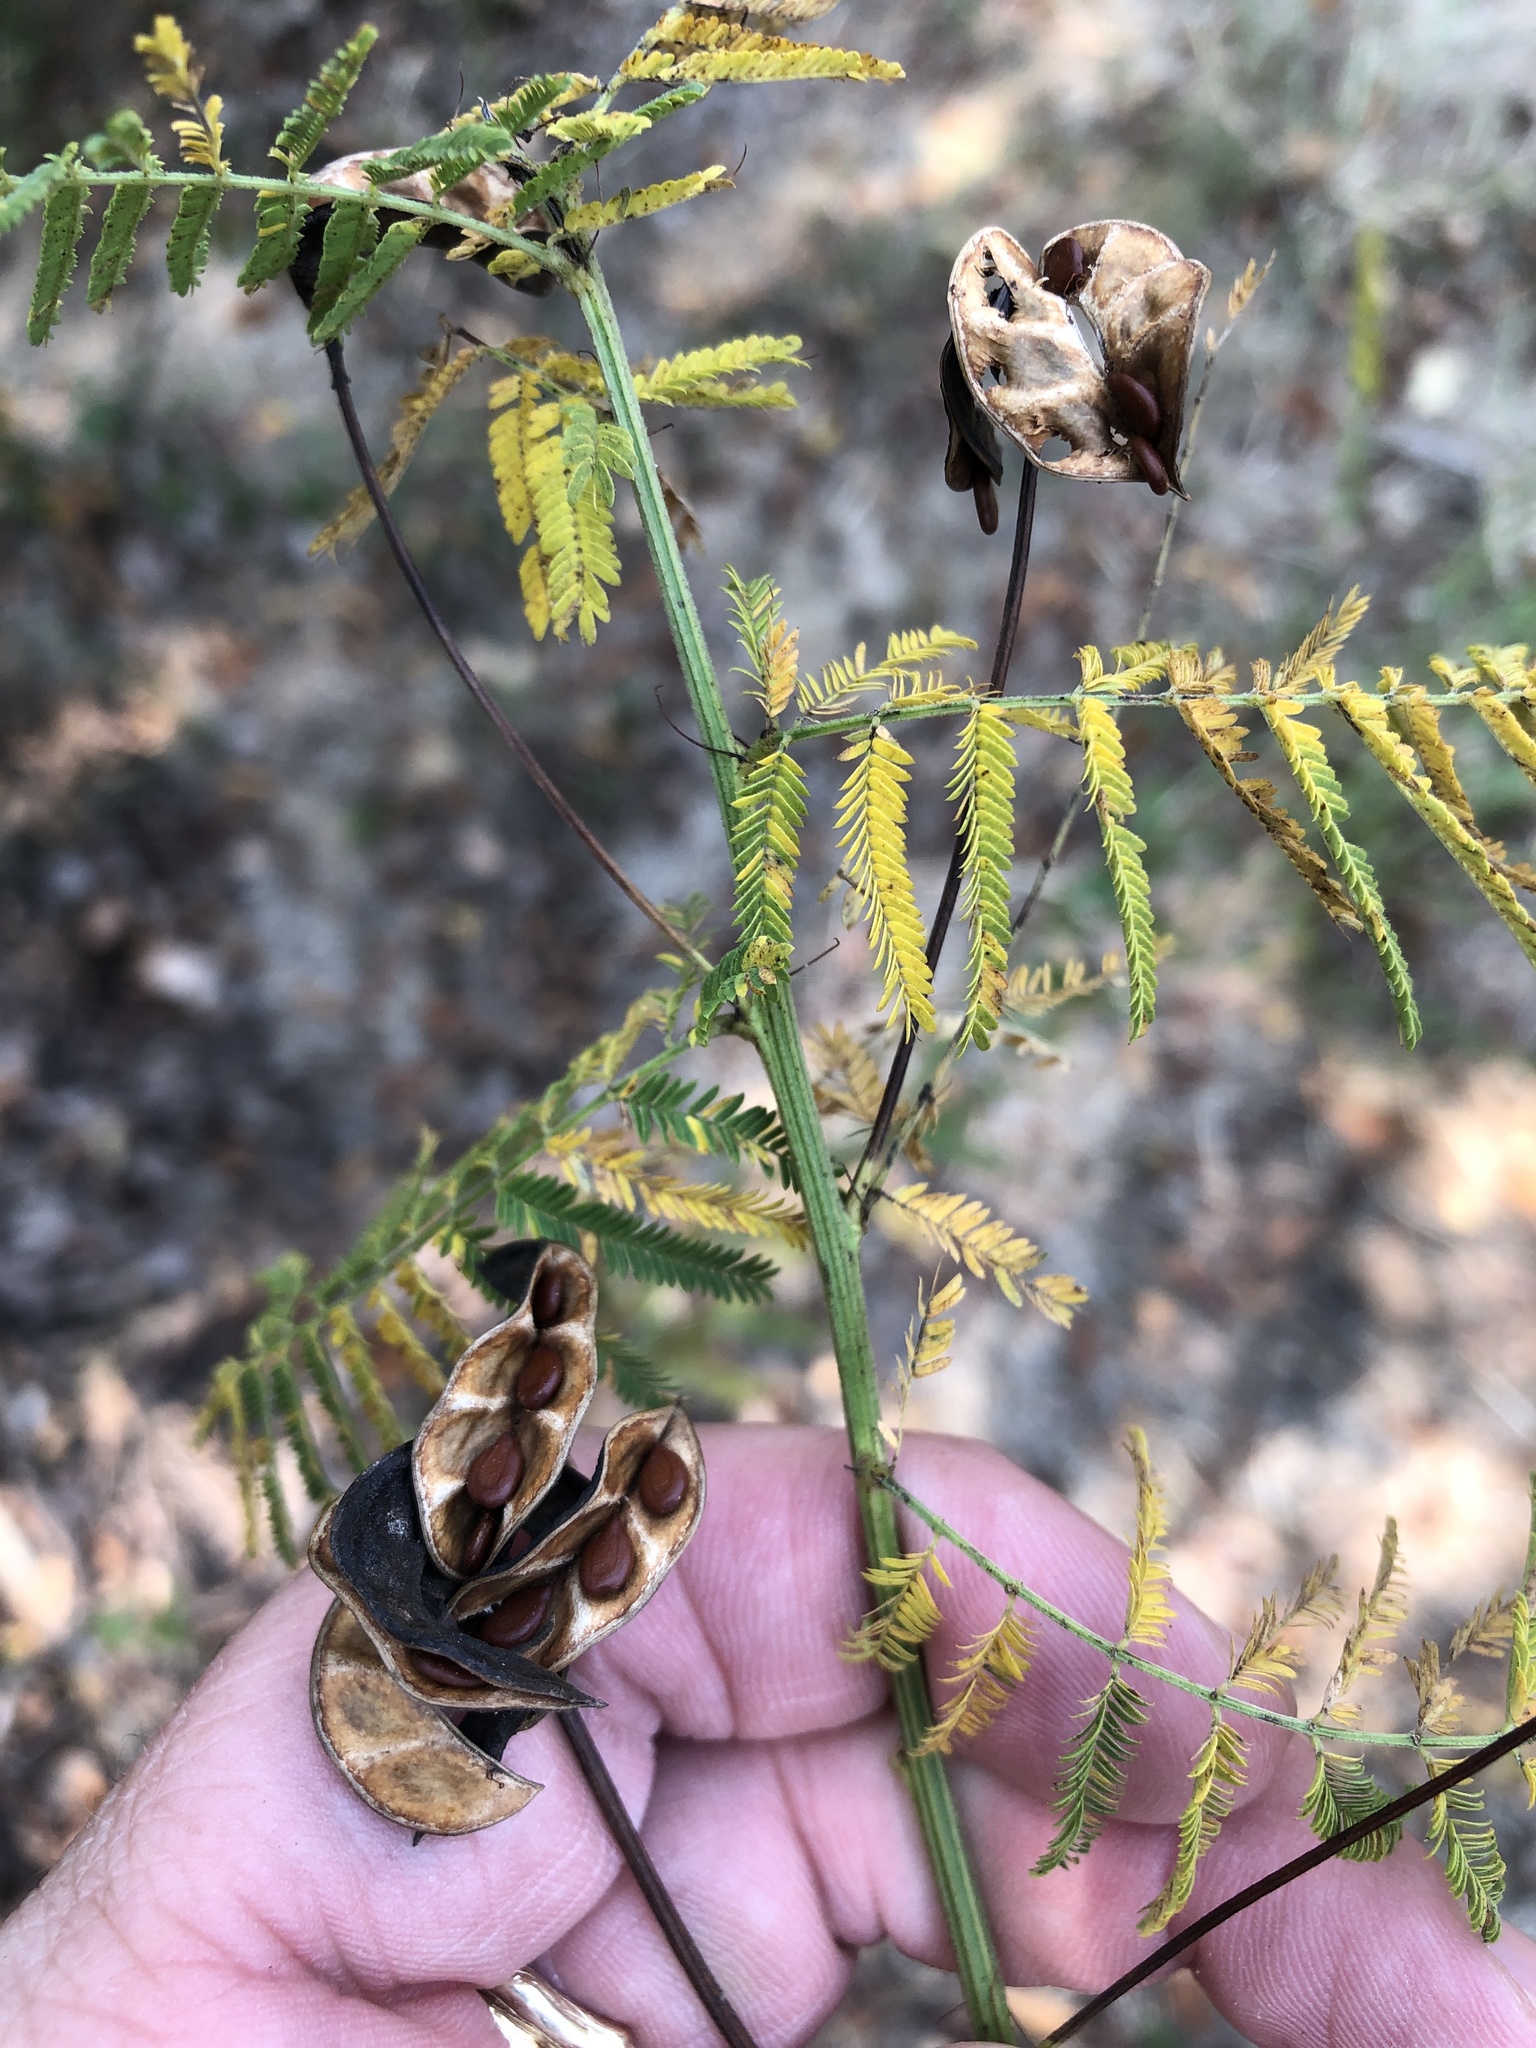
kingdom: Plantae
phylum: Tracheophyta
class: Magnoliopsida
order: Fabales
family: Fabaceae
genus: Desmanthus
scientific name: Desmanthus illinoensis
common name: Illinois bundle-flower
